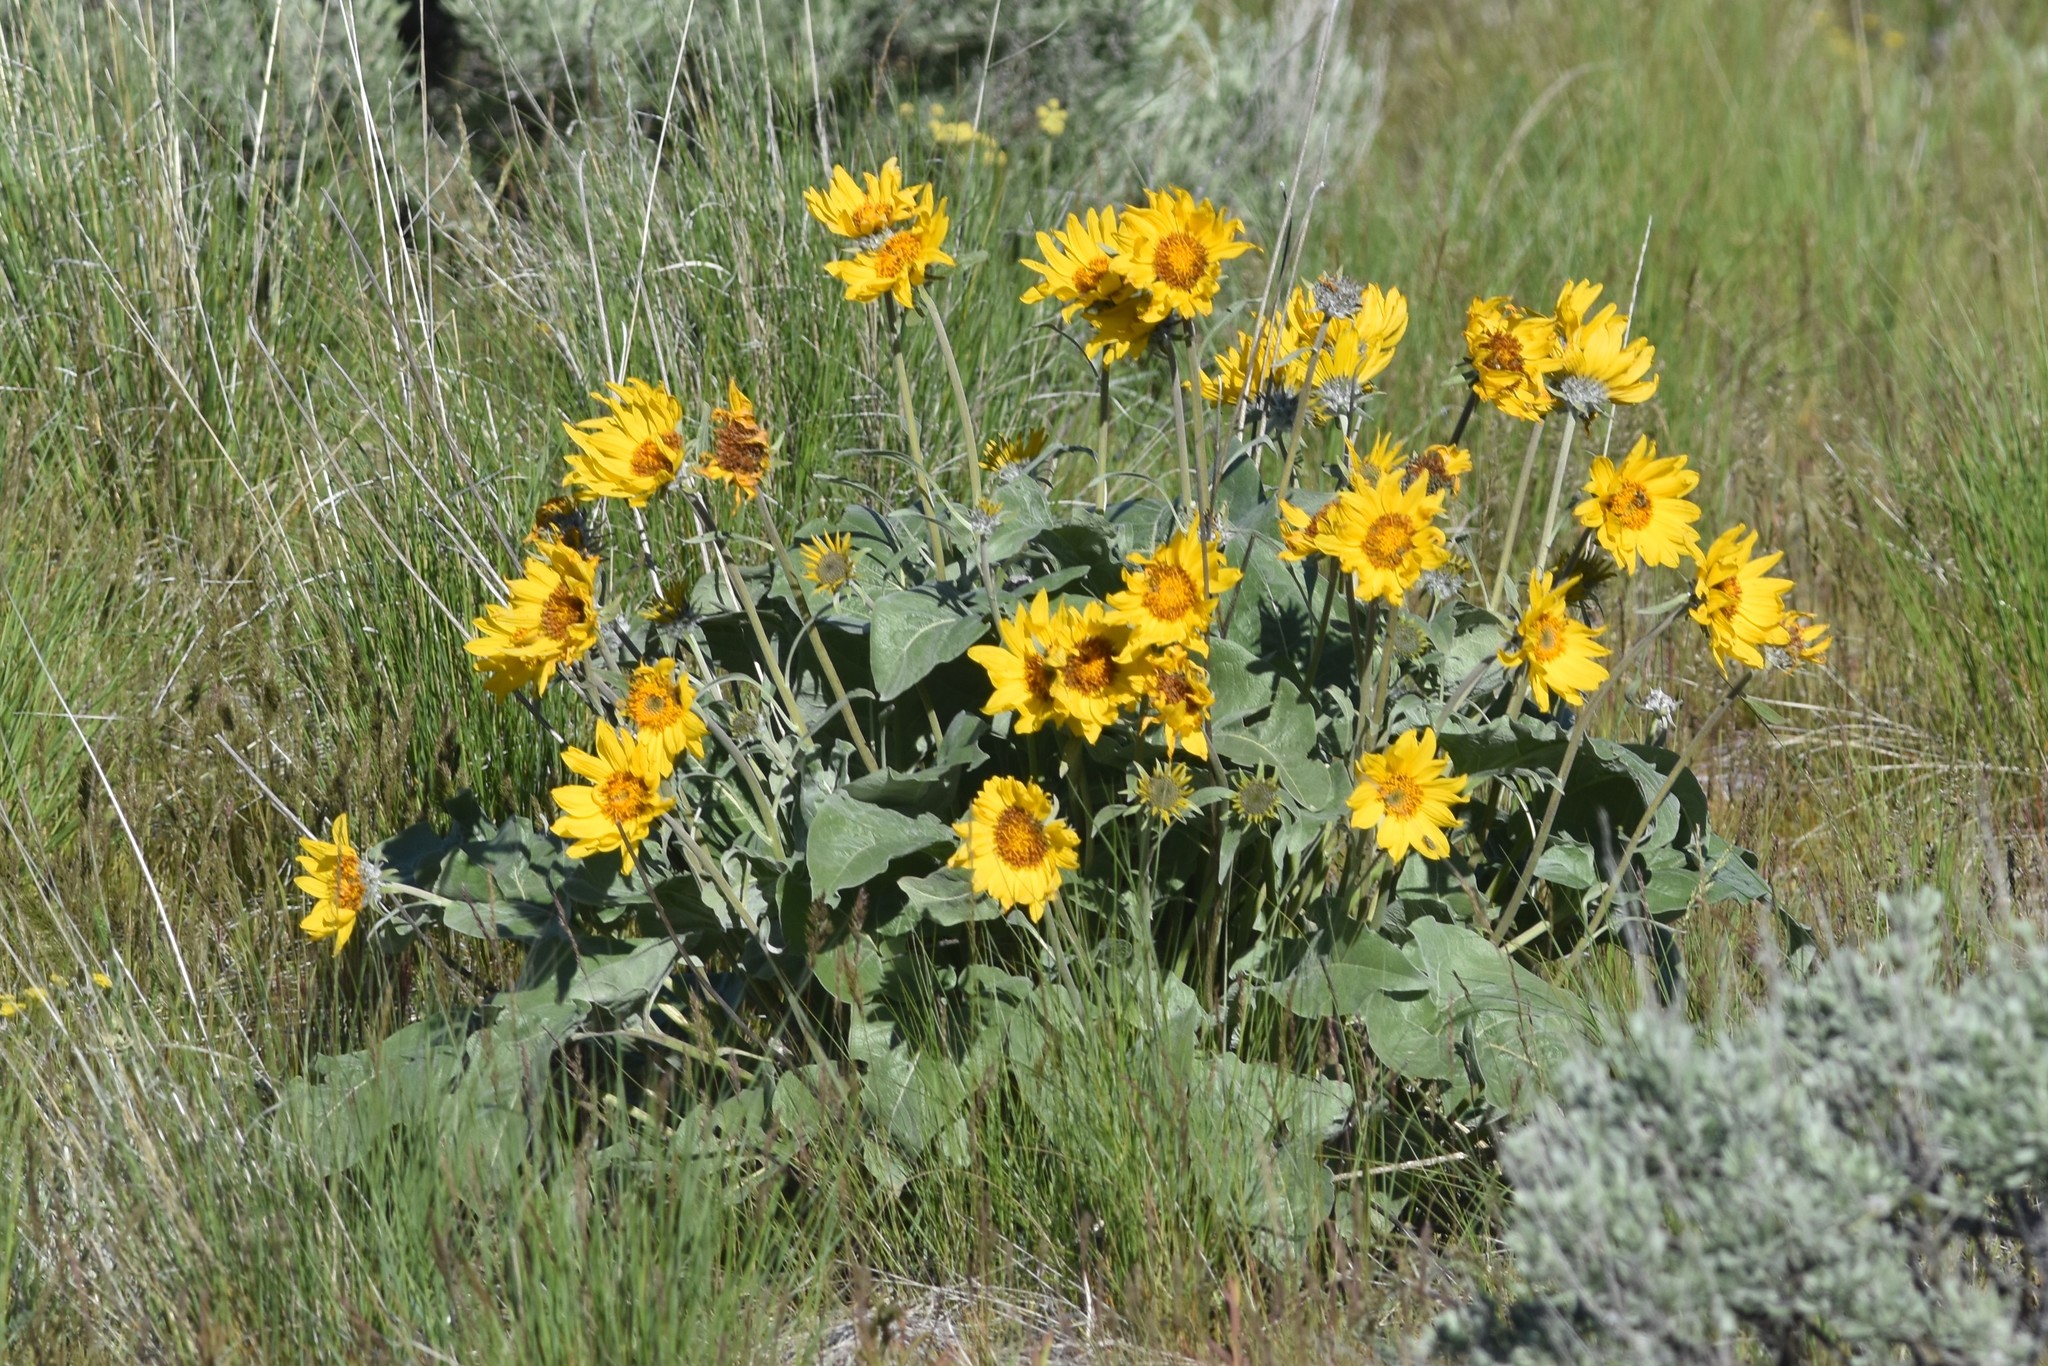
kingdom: Plantae
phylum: Tracheophyta
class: Magnoliopsida
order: Asterales
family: Asteraceae
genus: Wyethia
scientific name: Wyethia sagittata
